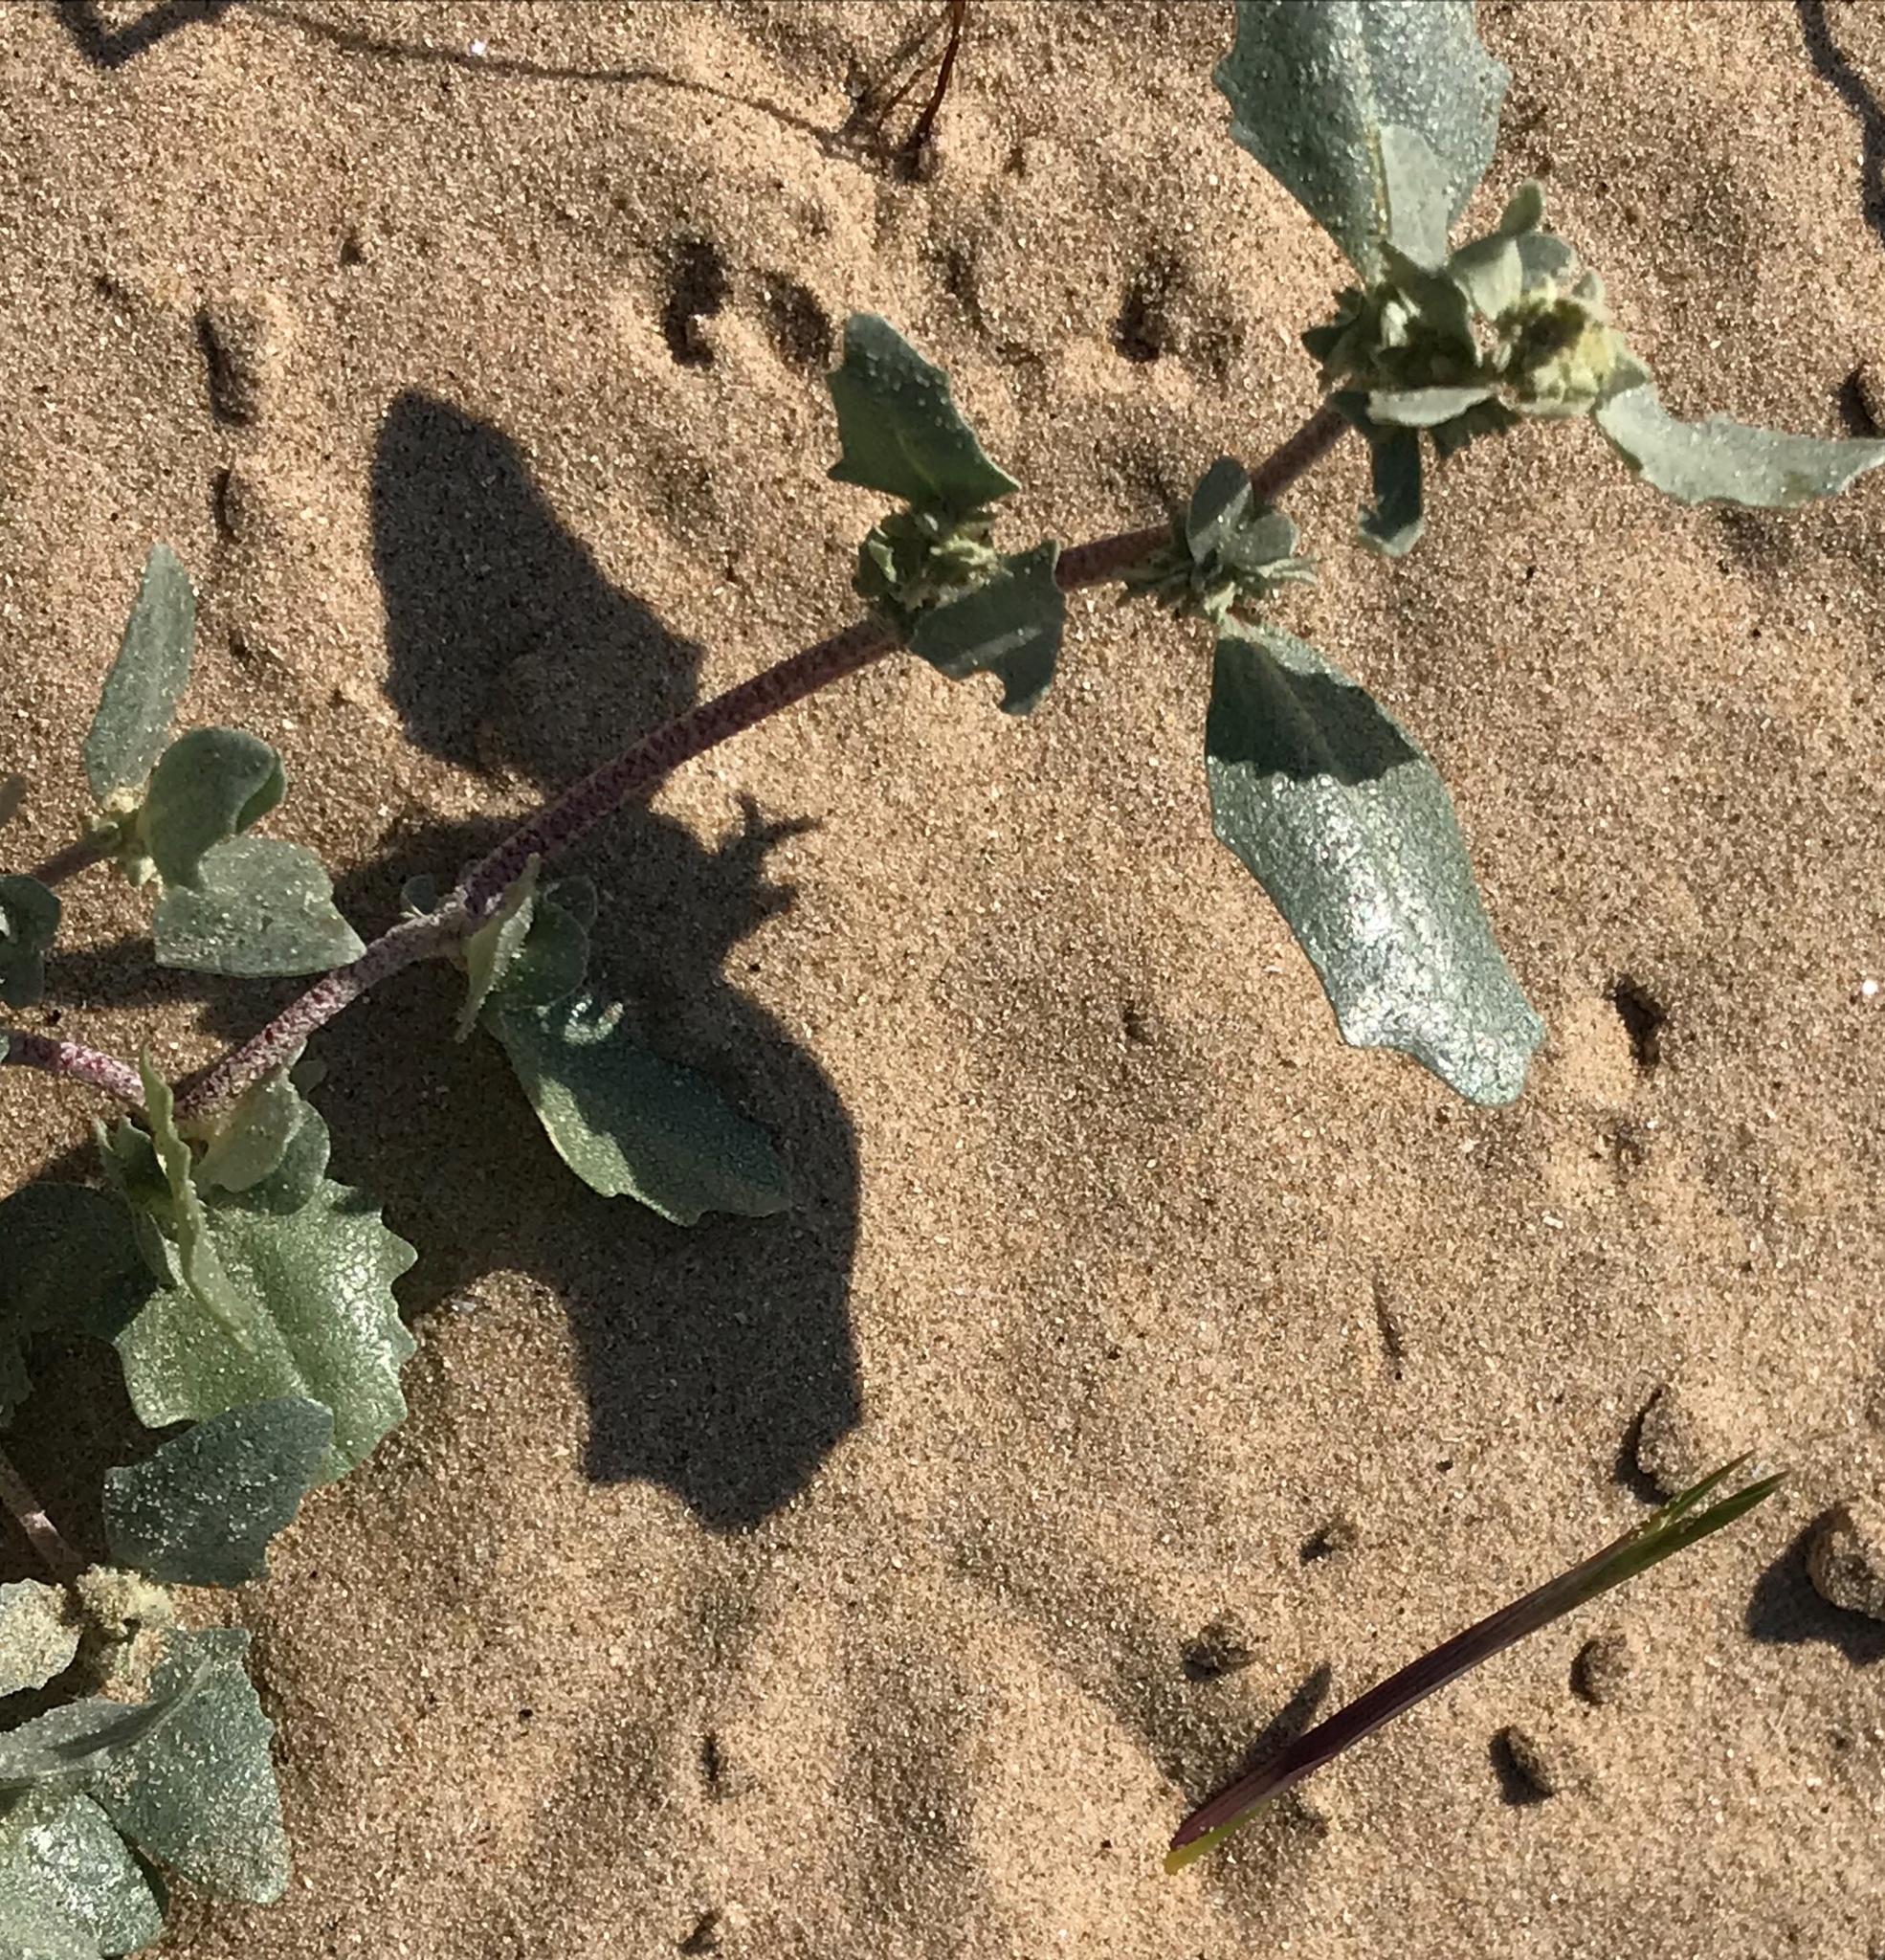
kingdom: Plantae
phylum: Tracheophyta
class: Magnoliopsida
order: Caryophyllales
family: Amaranthaceae
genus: Atriplex
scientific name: Atriplex laciniata
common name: Frosted orache
